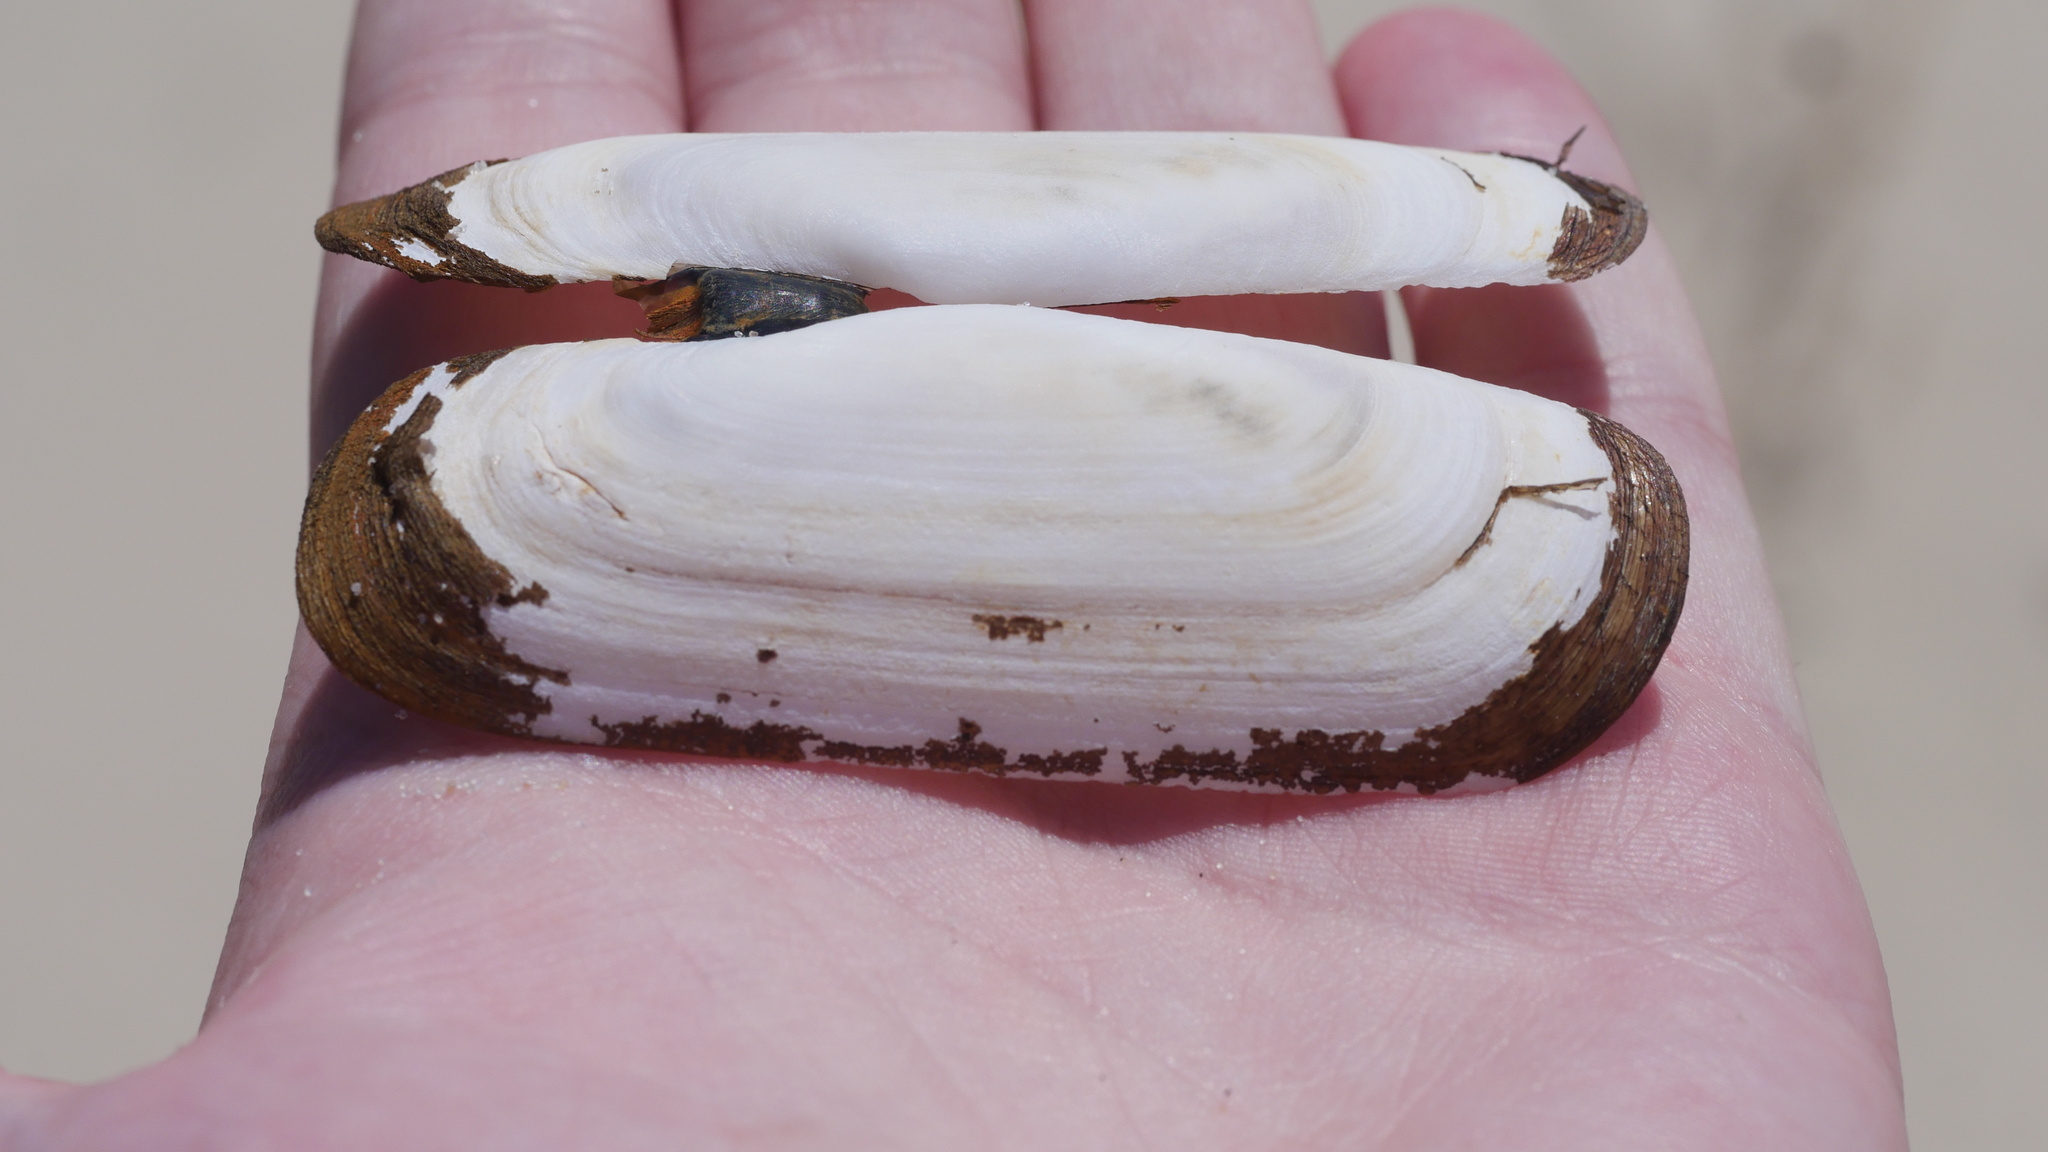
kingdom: Animalia
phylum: Mollusca
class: Bivalvia
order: Cardiida
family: Solecurtidae
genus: Tagelus
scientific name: Tagelus plebeius
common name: Stout tagelus
